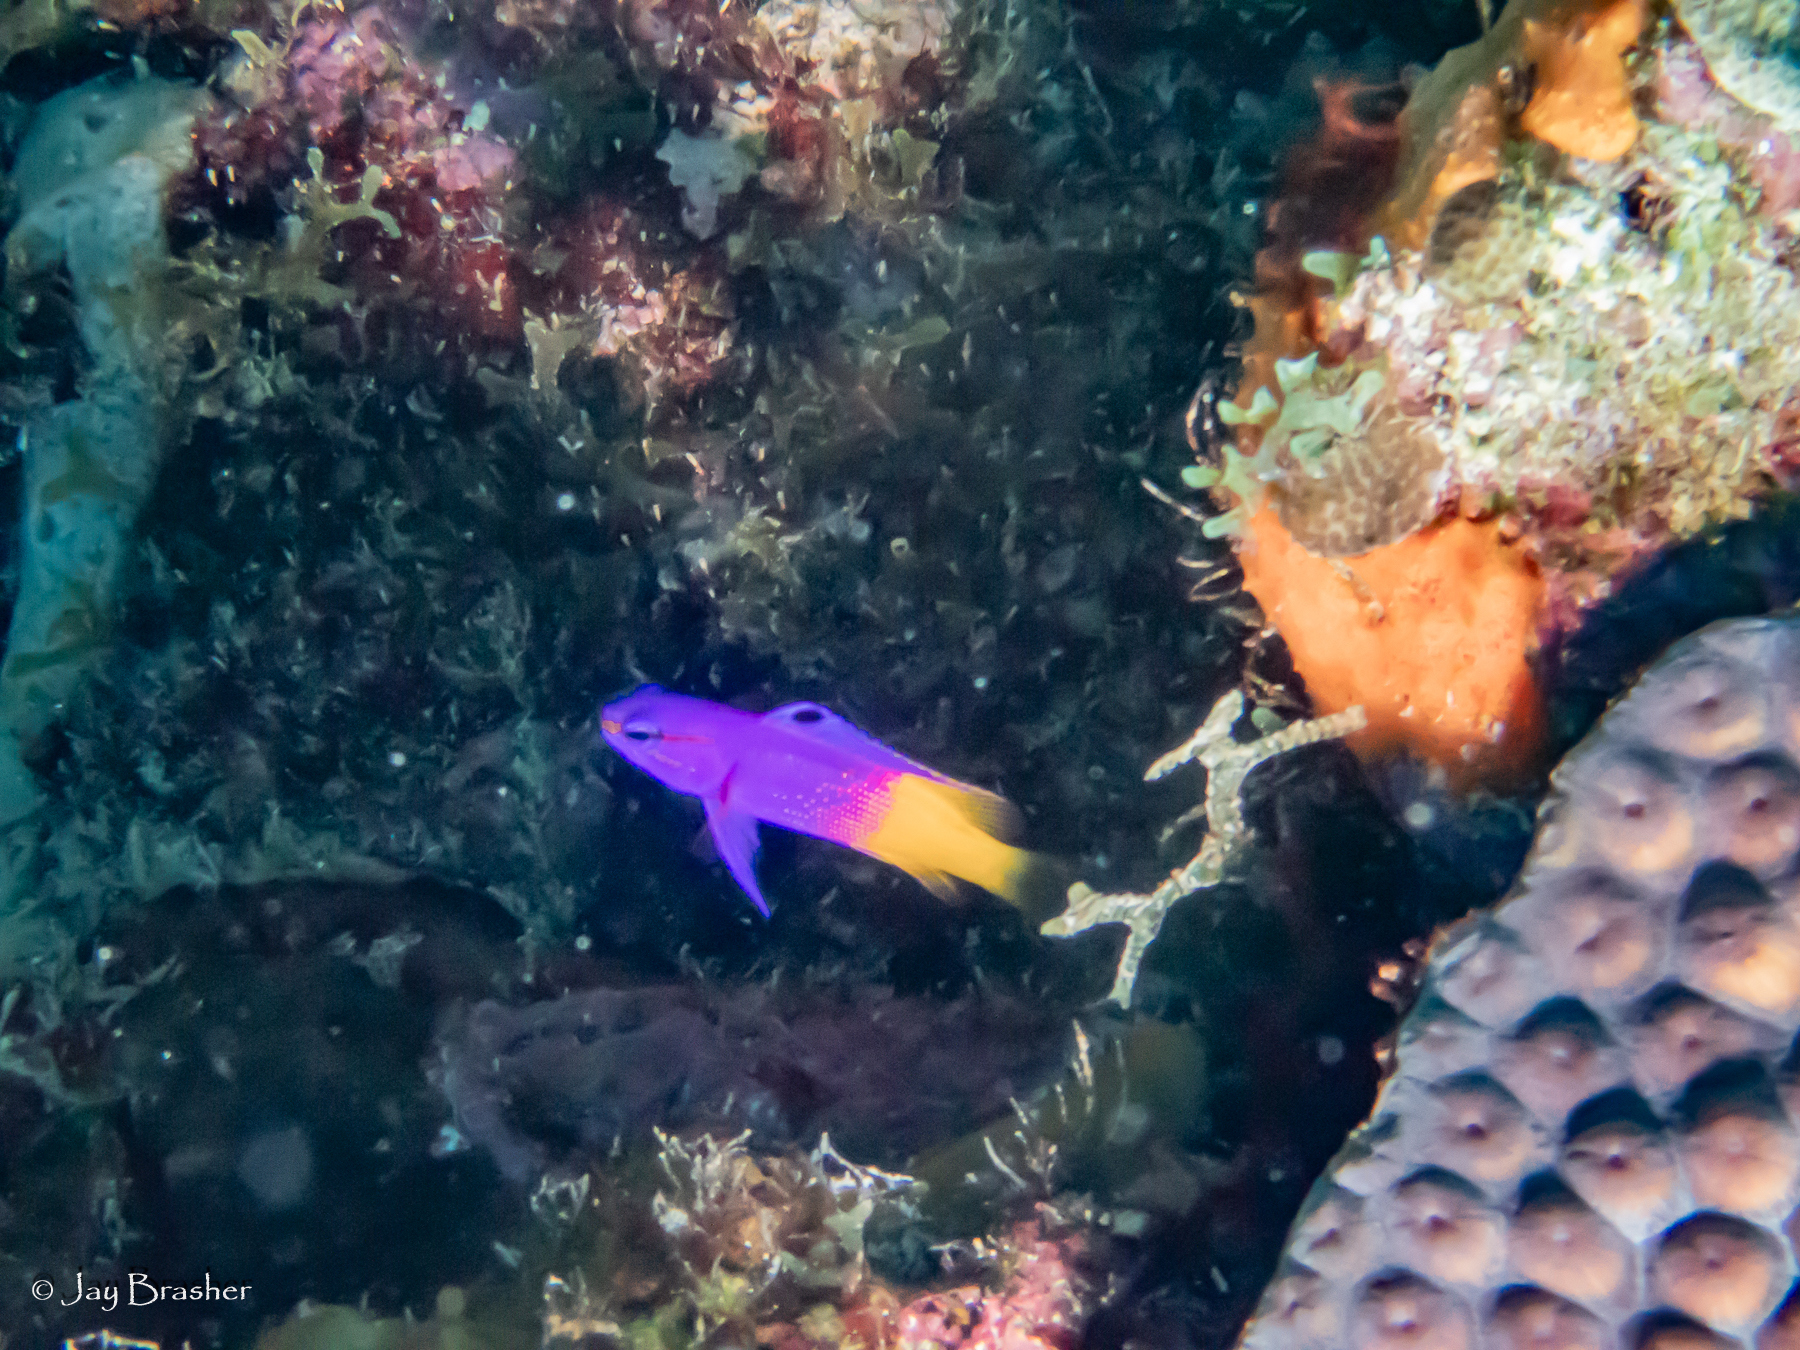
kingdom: Animalia
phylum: Chordata
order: Perciformes
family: Grammatidae
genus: Gramma
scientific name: Gramma loreto
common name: Fairy basslet
